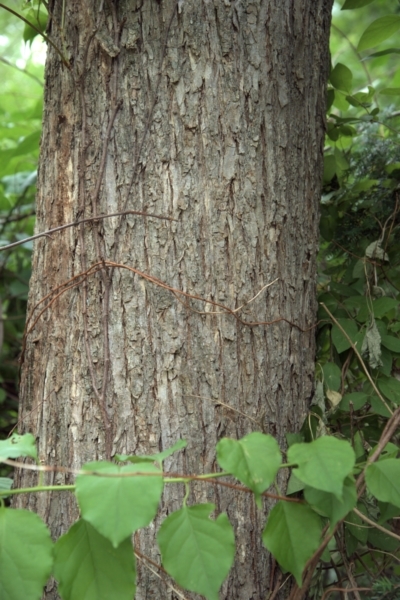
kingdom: Plantae
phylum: Tracheophyta
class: Magnoliopsida
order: Rosales
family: Ulmaceae
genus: Ulmus
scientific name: Ulmus americana
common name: American elm
